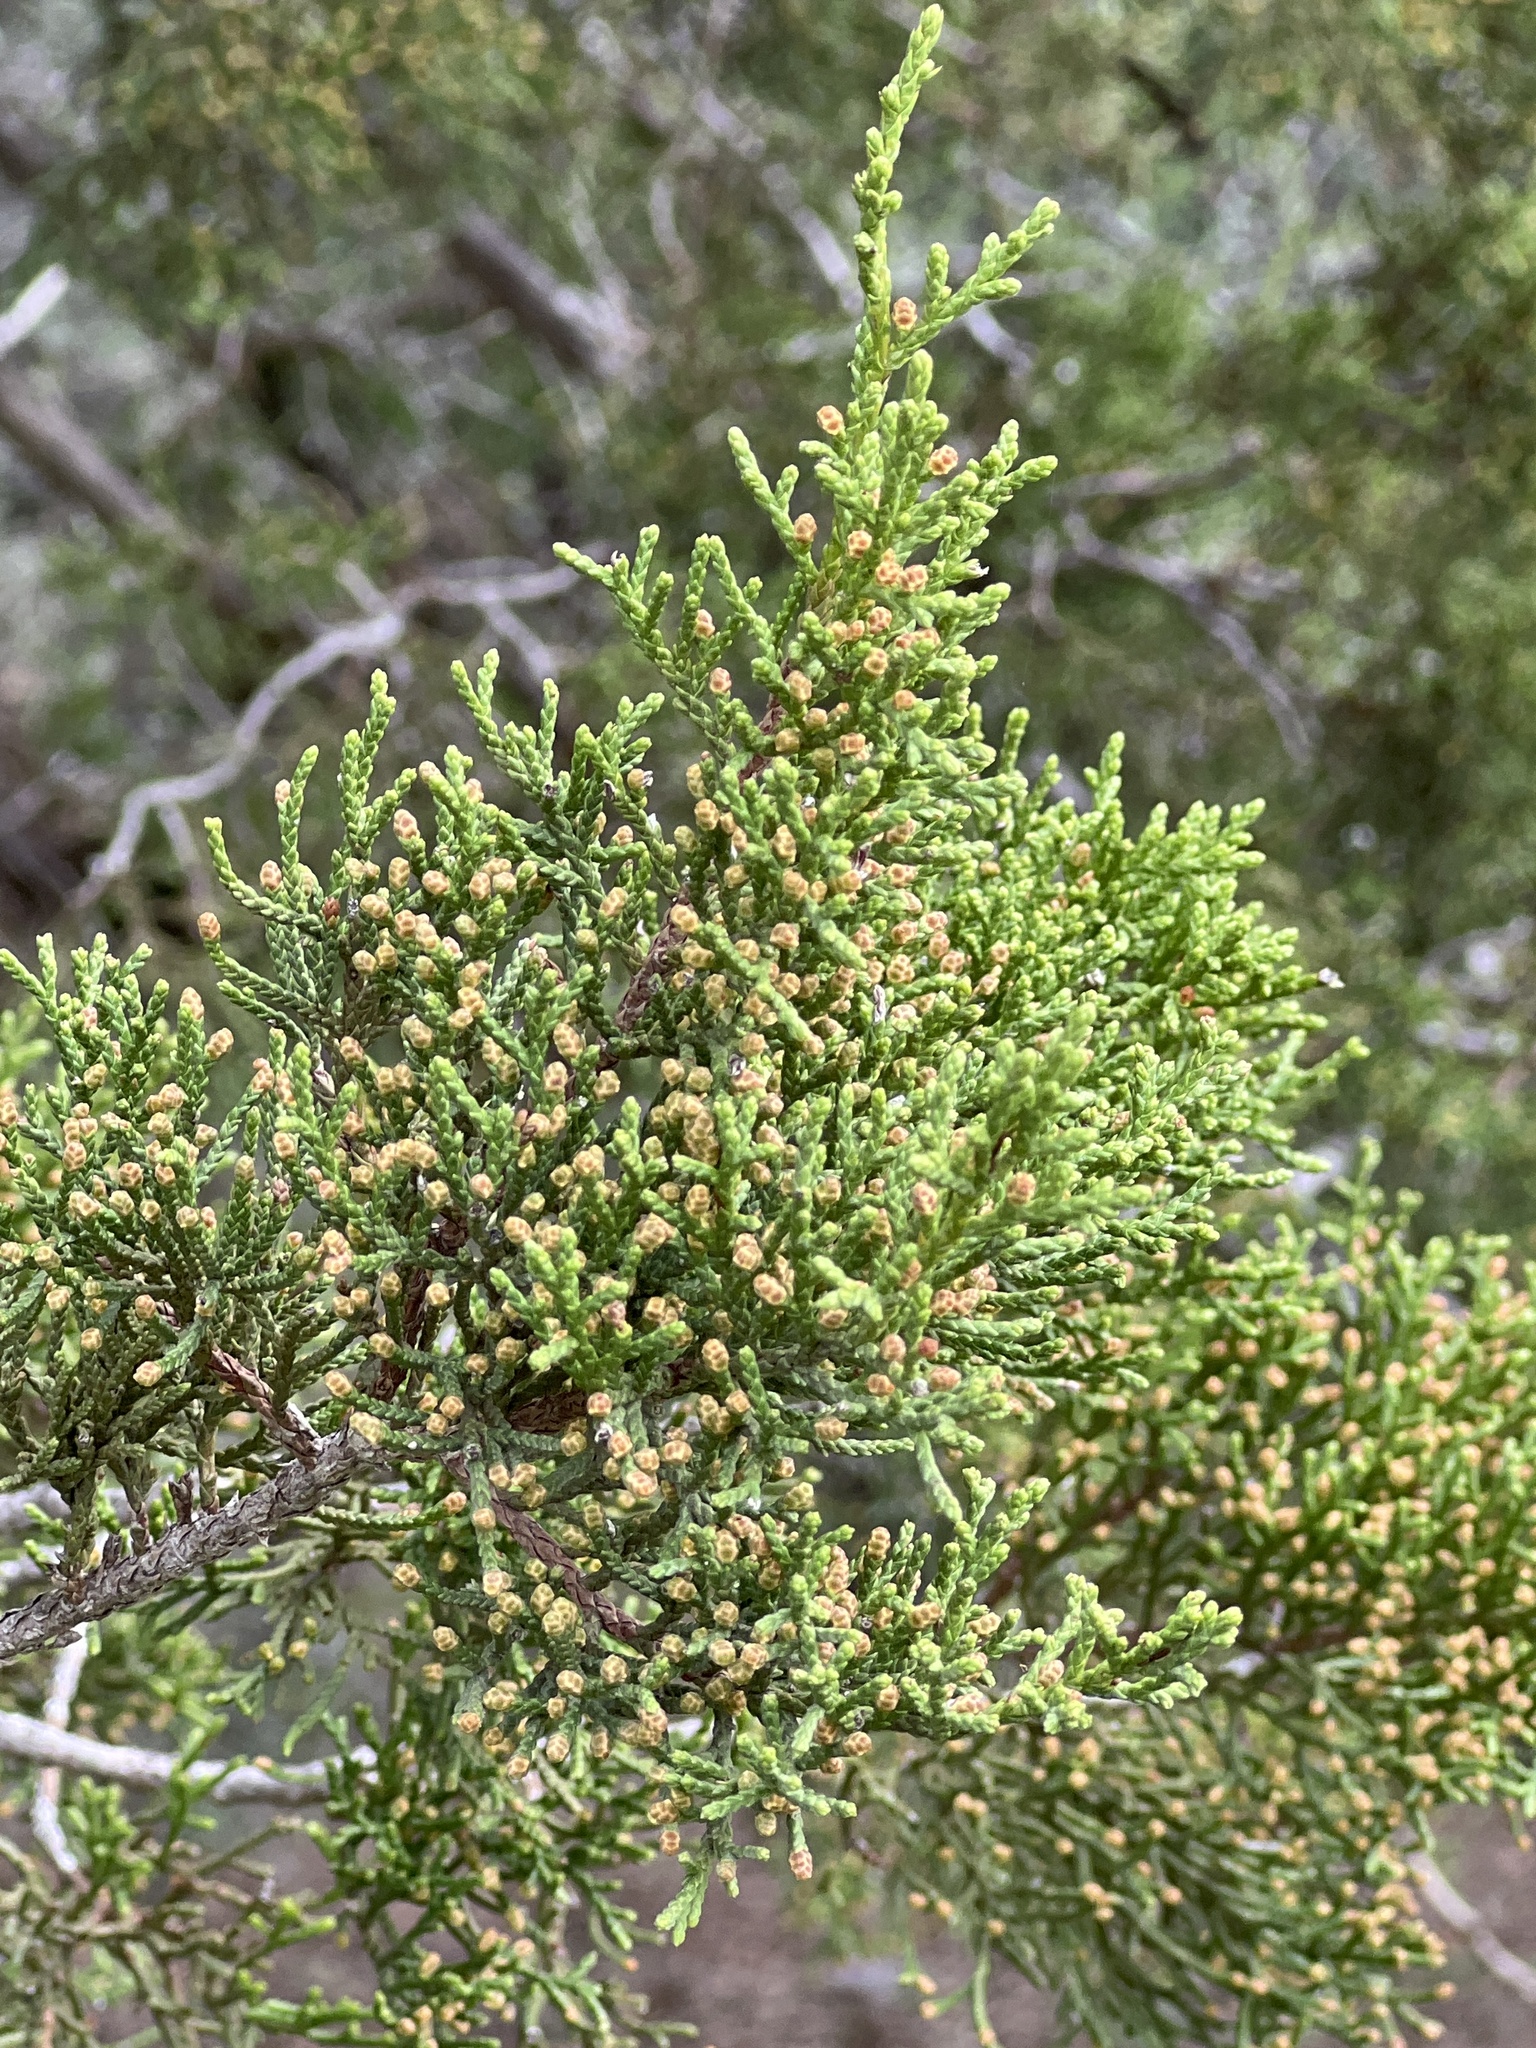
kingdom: Plantae
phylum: Tracheophyta
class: Pinopsida
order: Pinales
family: Cupressaceae
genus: Juniperus
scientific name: Juniperus ashei
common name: Mexican juniper
